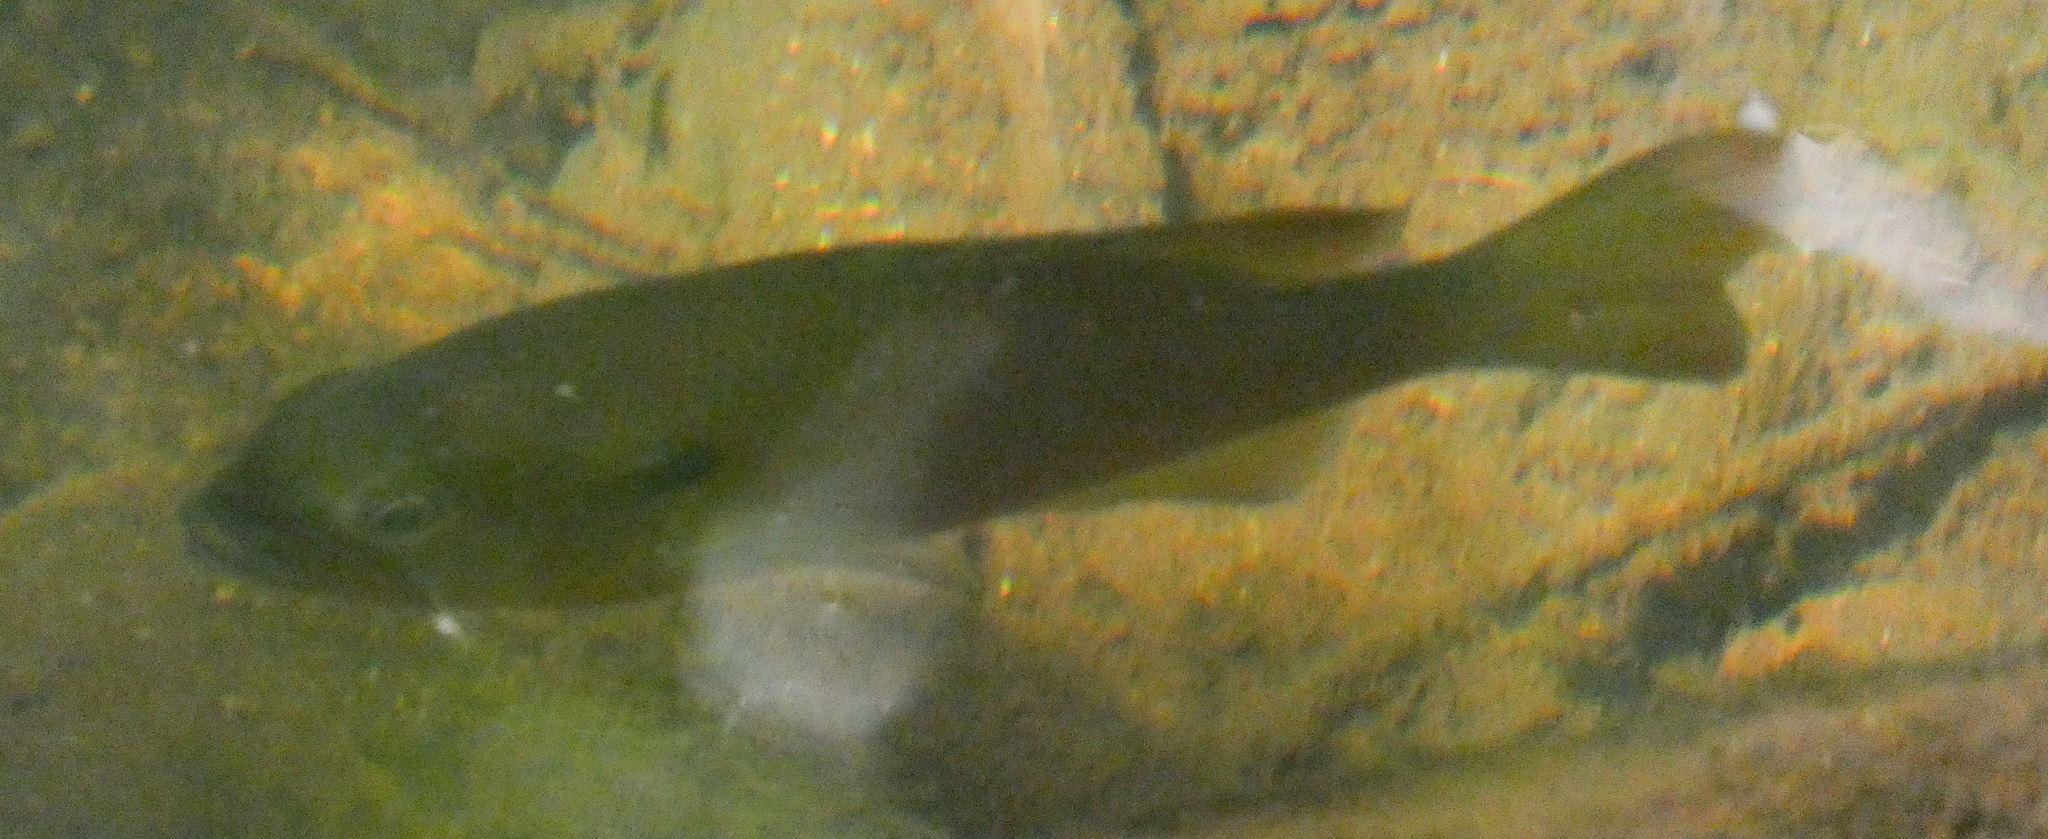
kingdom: Animalia
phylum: Chordata
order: Perciformes
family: Centrarchidae
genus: Lepomis
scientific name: Lepomis auritus
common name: Redbreast sunfish
